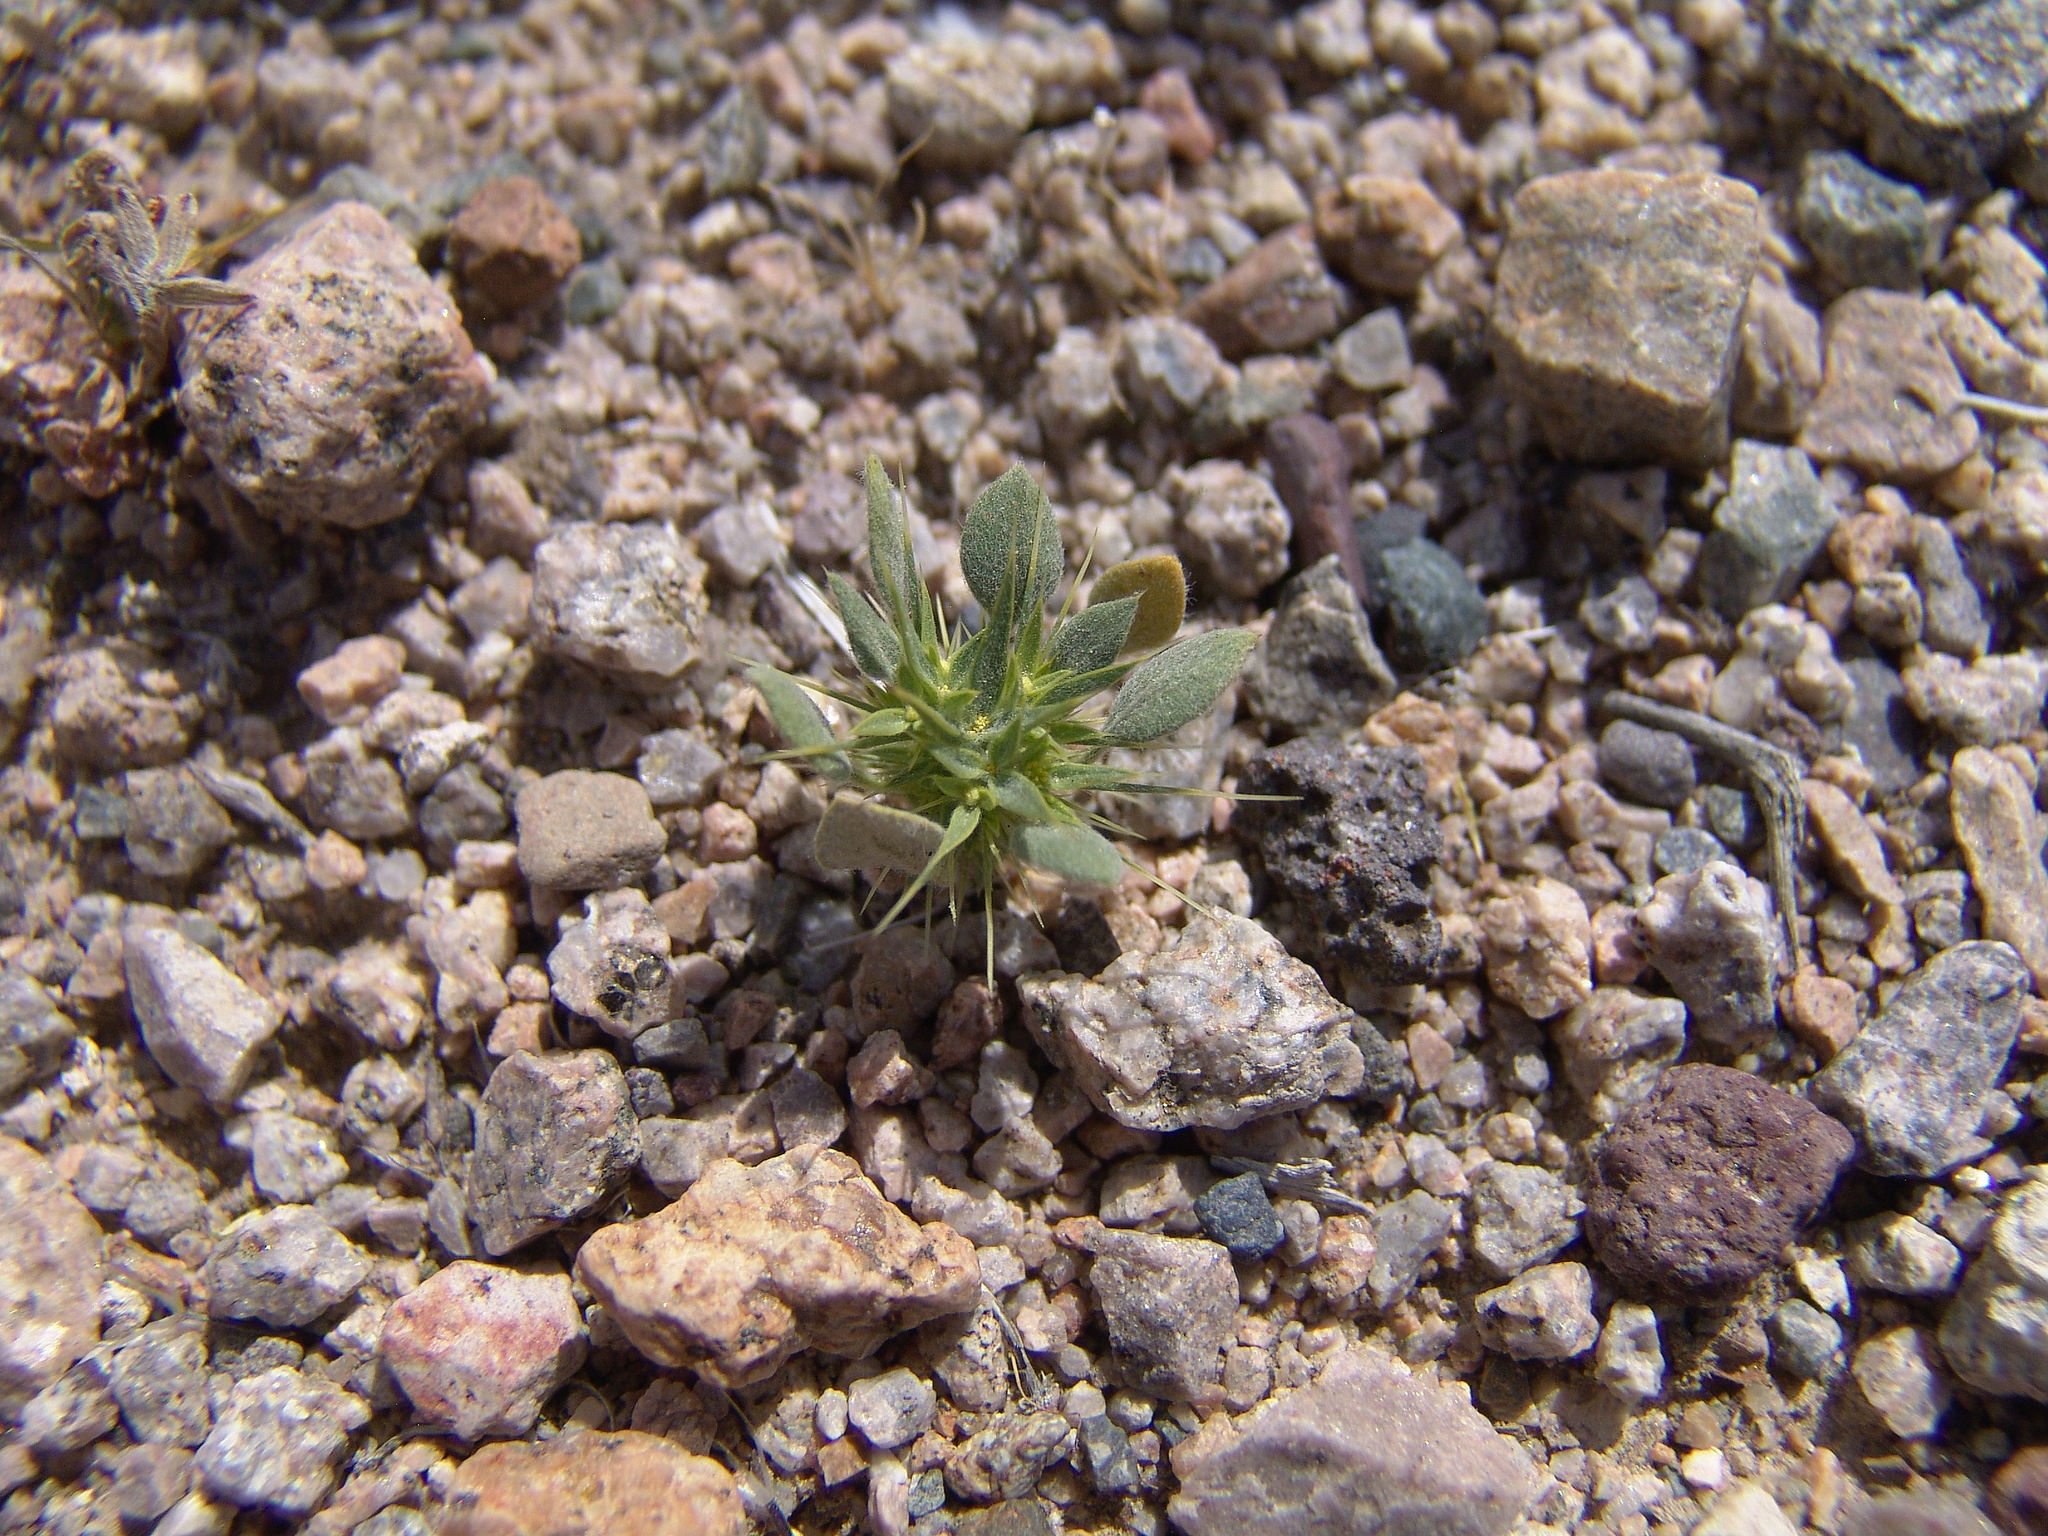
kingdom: Plantae
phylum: Tracheophyta
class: Magnoliopsida
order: Caryophyllales
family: Polygonaceae
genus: Chorizanthe
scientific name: Chorizanthe rigida
